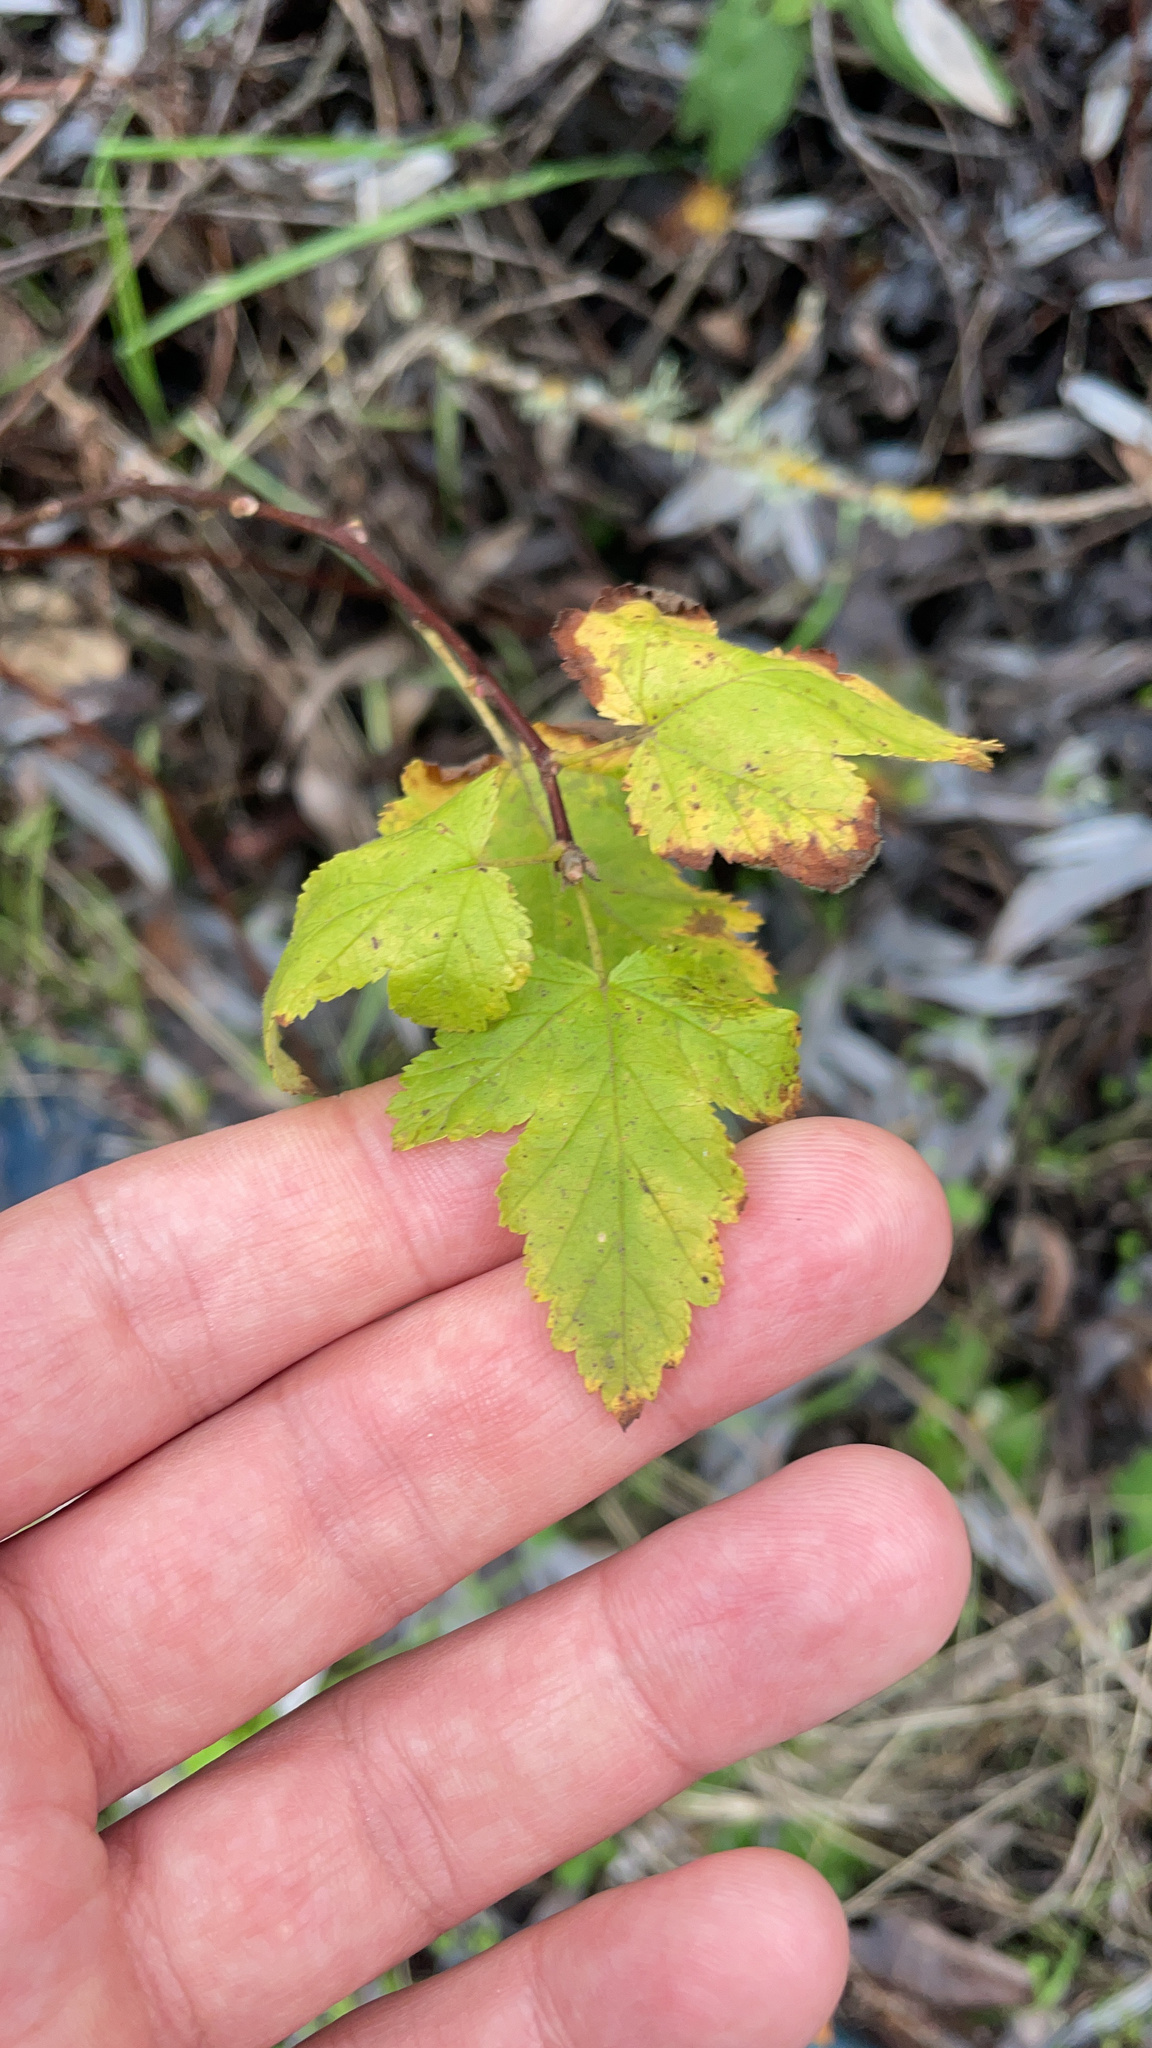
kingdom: Plantae
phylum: Tracheophyta
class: Magnoliopsida
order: Rosales
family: Rosaceae
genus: Physocarpus
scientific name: Physocarpus capitatus
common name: Pacific ninebark
